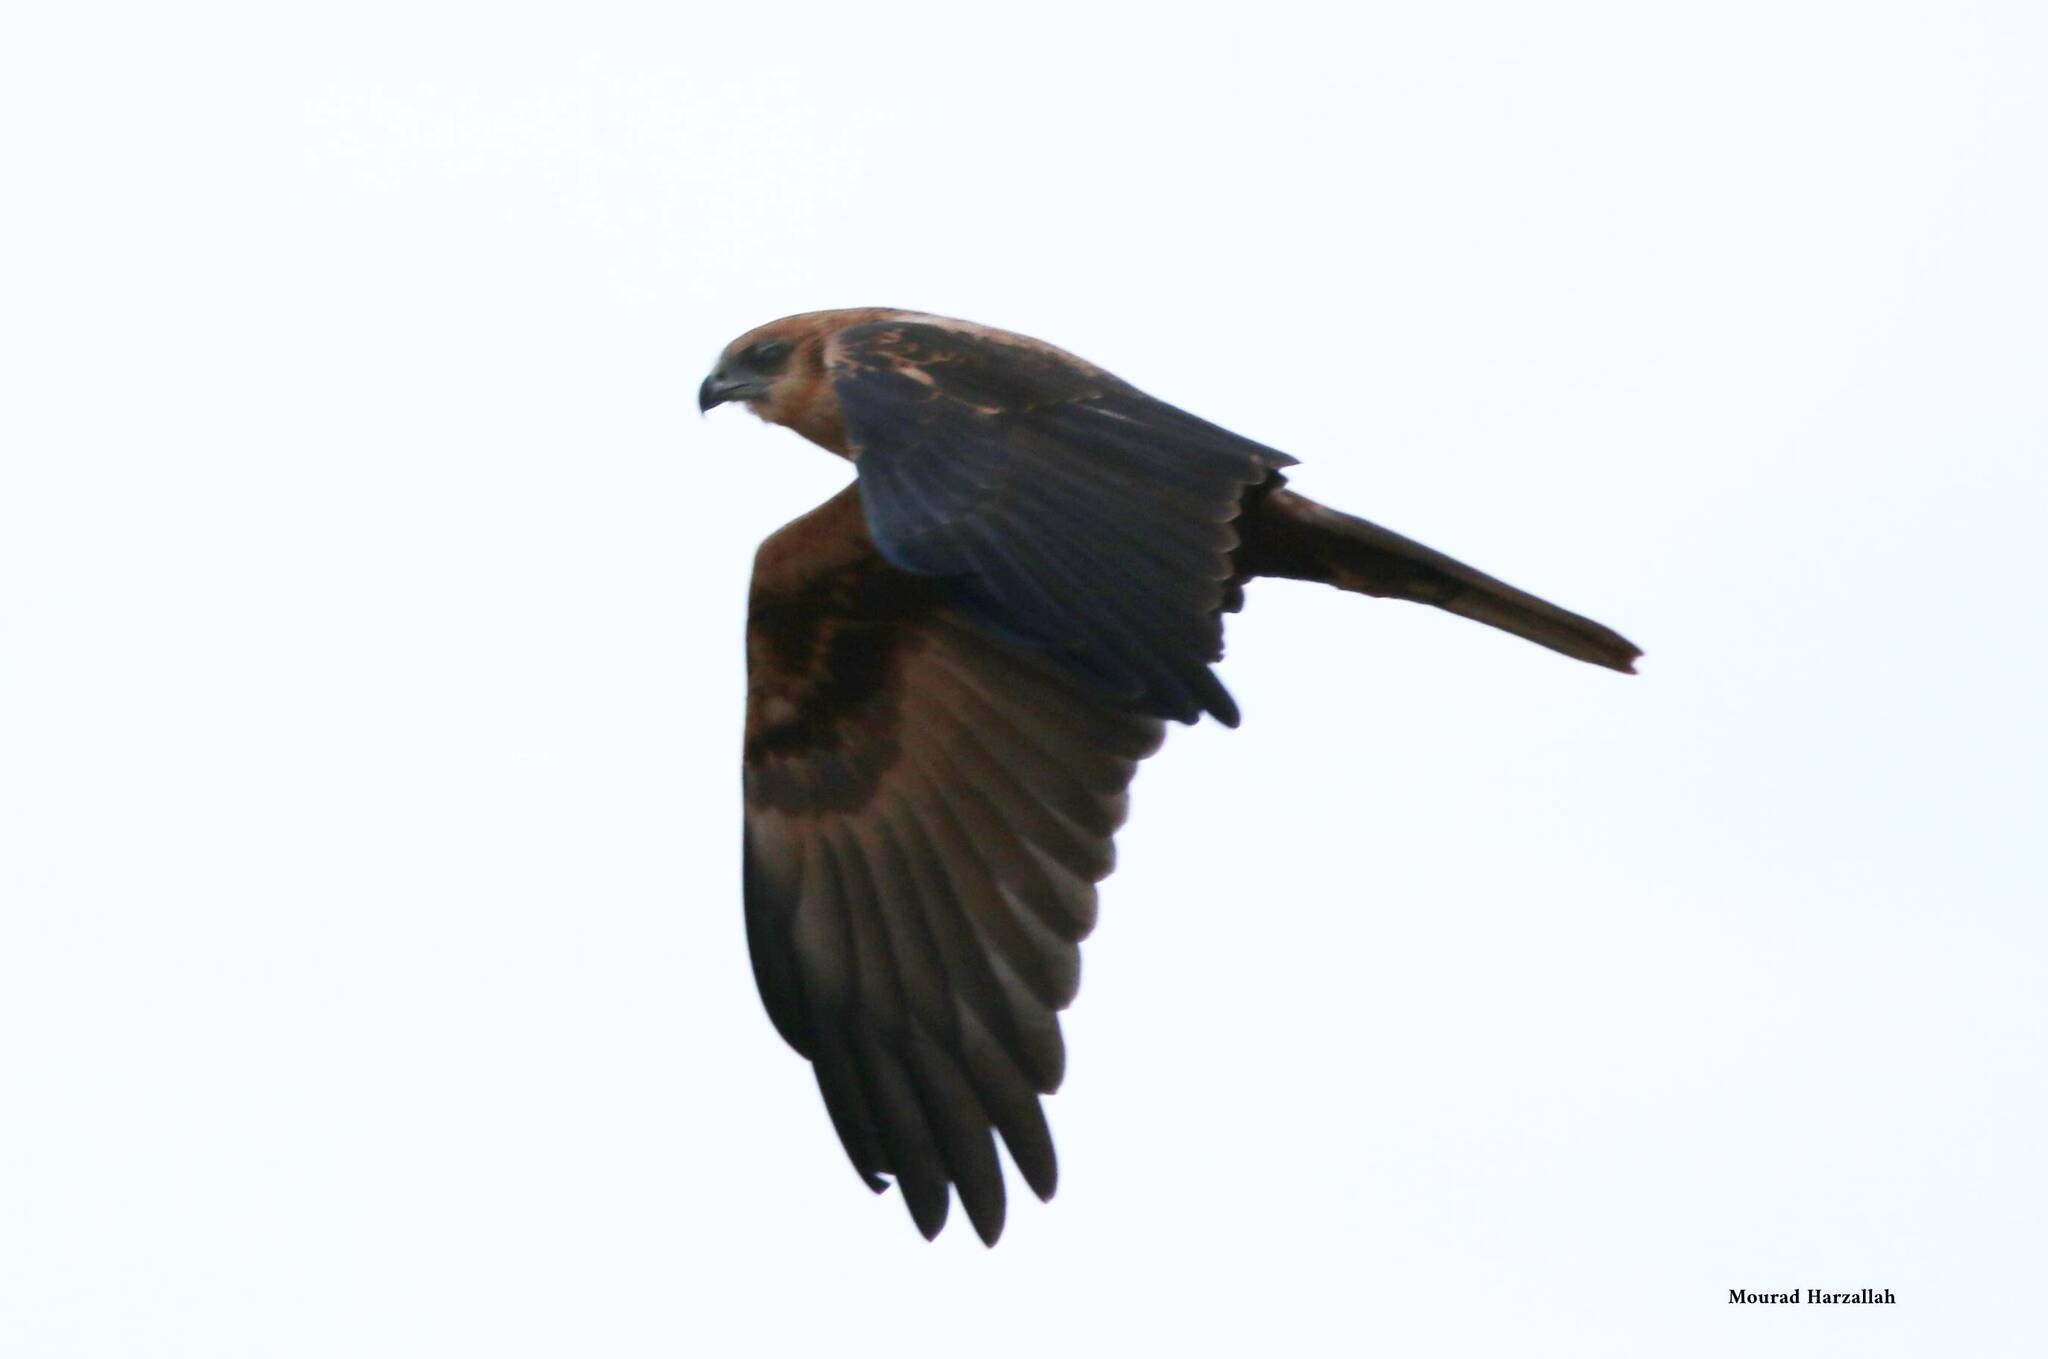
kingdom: Animalia
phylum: Chordata
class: Aves
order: Accipitriformes
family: Accipitridae
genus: Circus
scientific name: Circus aeruginosus
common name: Western marsh harrier
